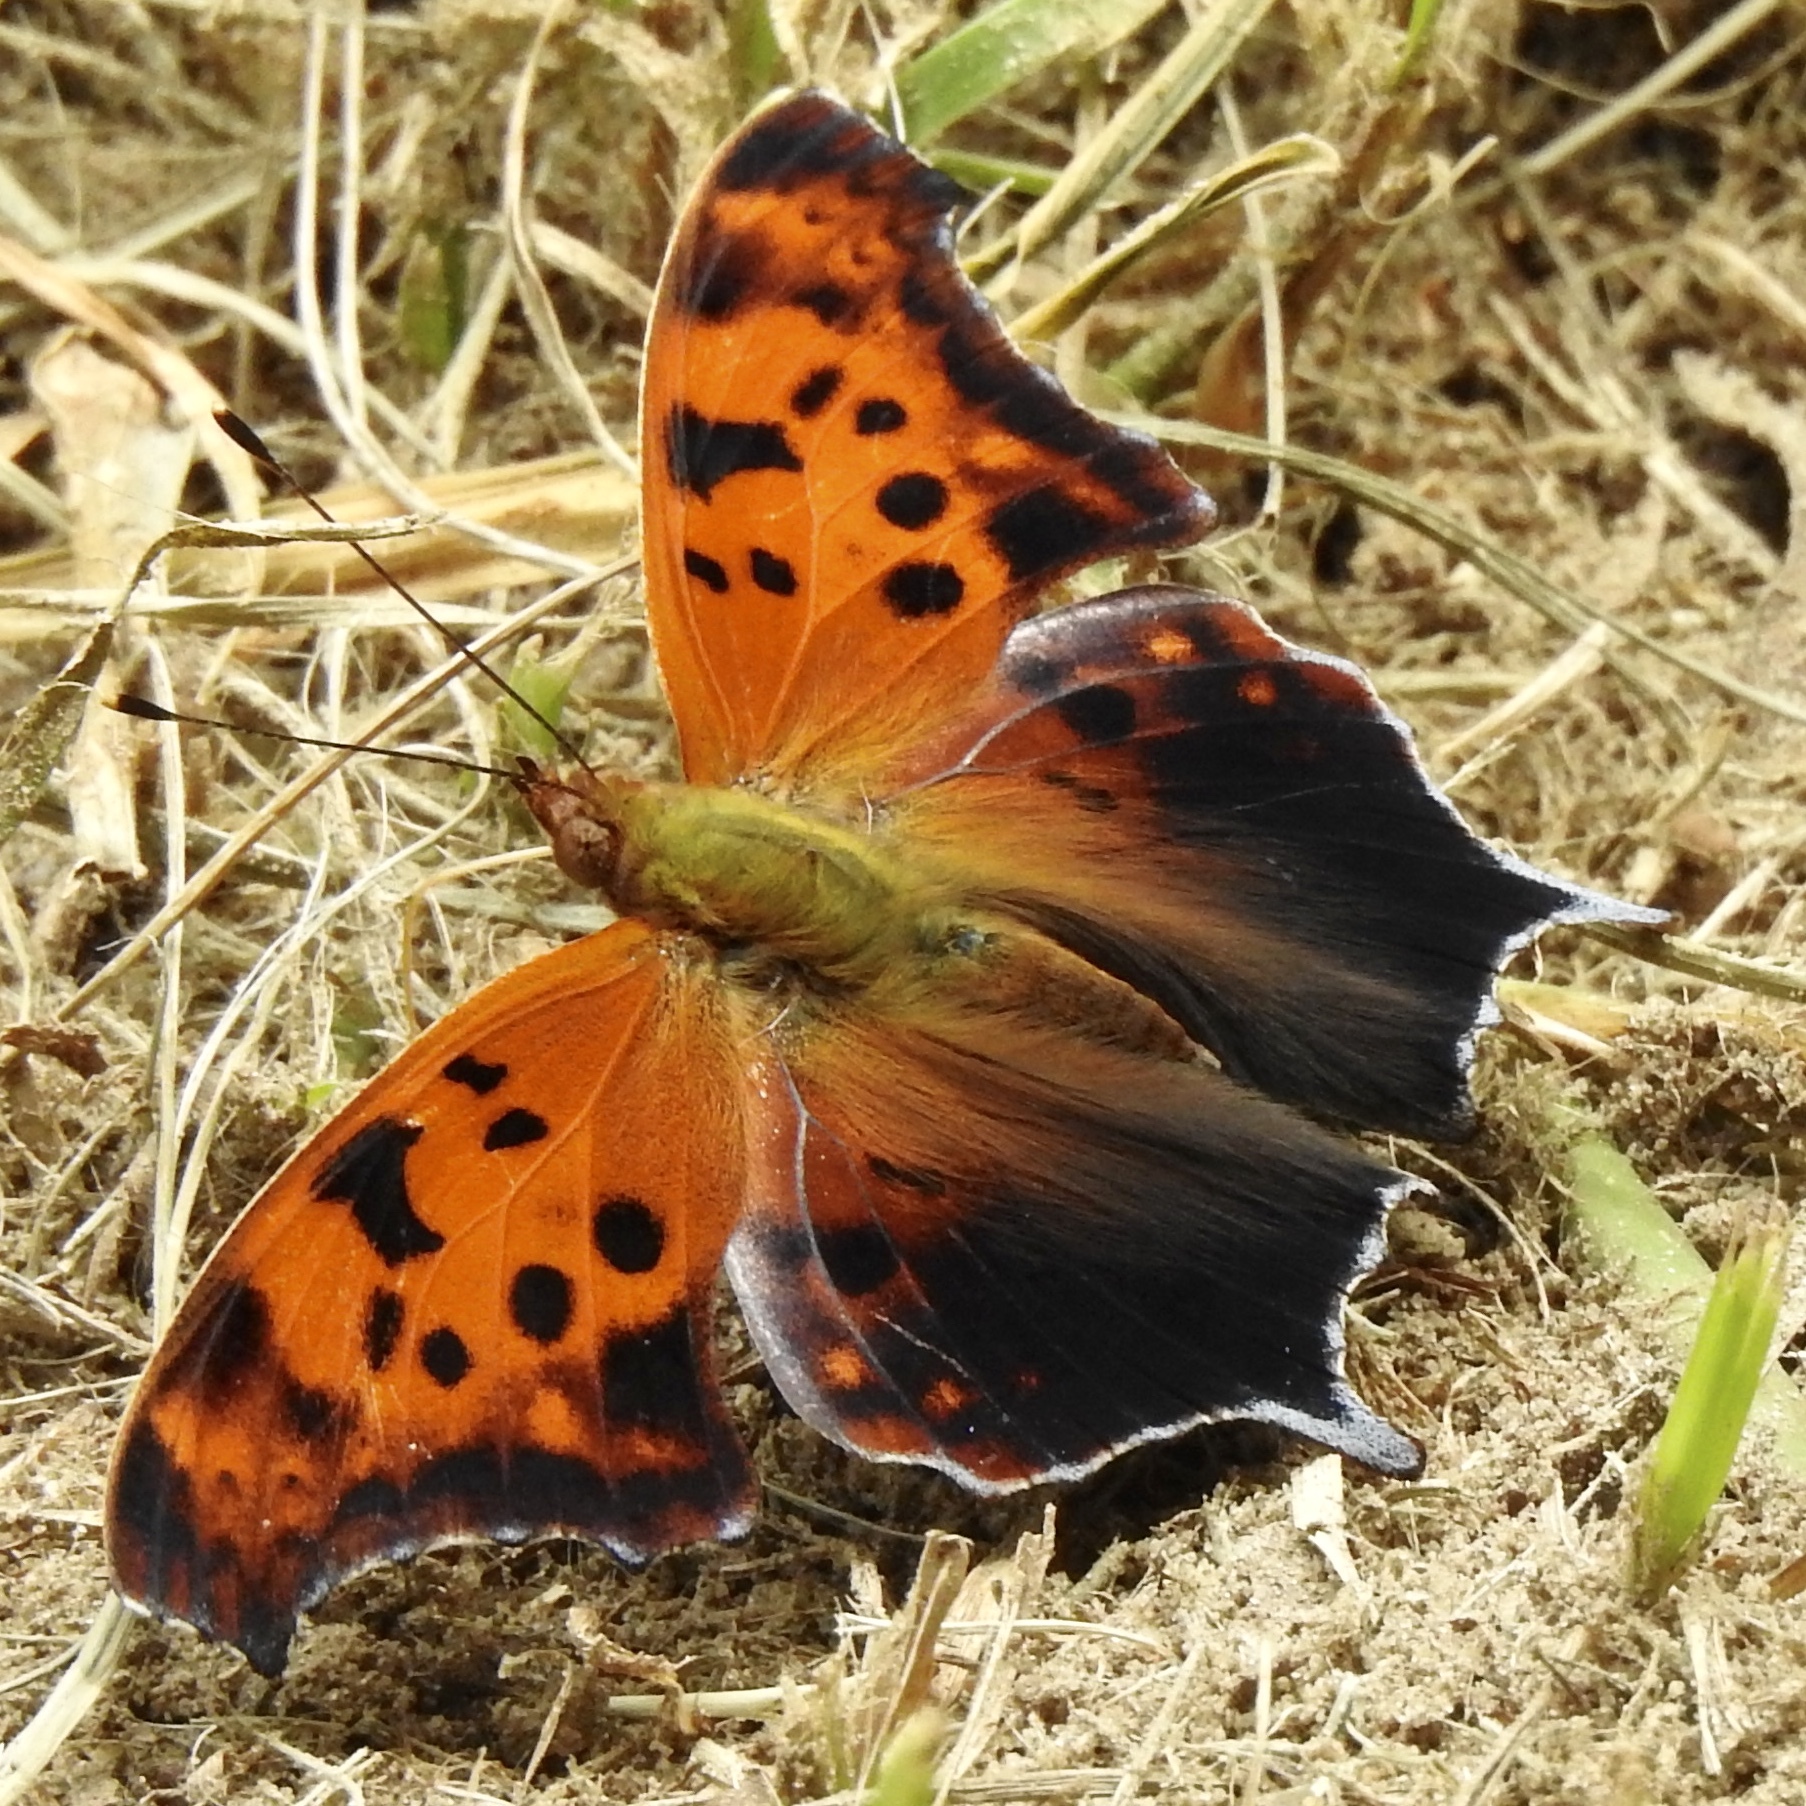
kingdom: Animalia
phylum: Arthropoda
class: Insecta
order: Lepidoptera
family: Nymphalidae
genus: Polygonia
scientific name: Polygonia interrogationis
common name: Question mark
